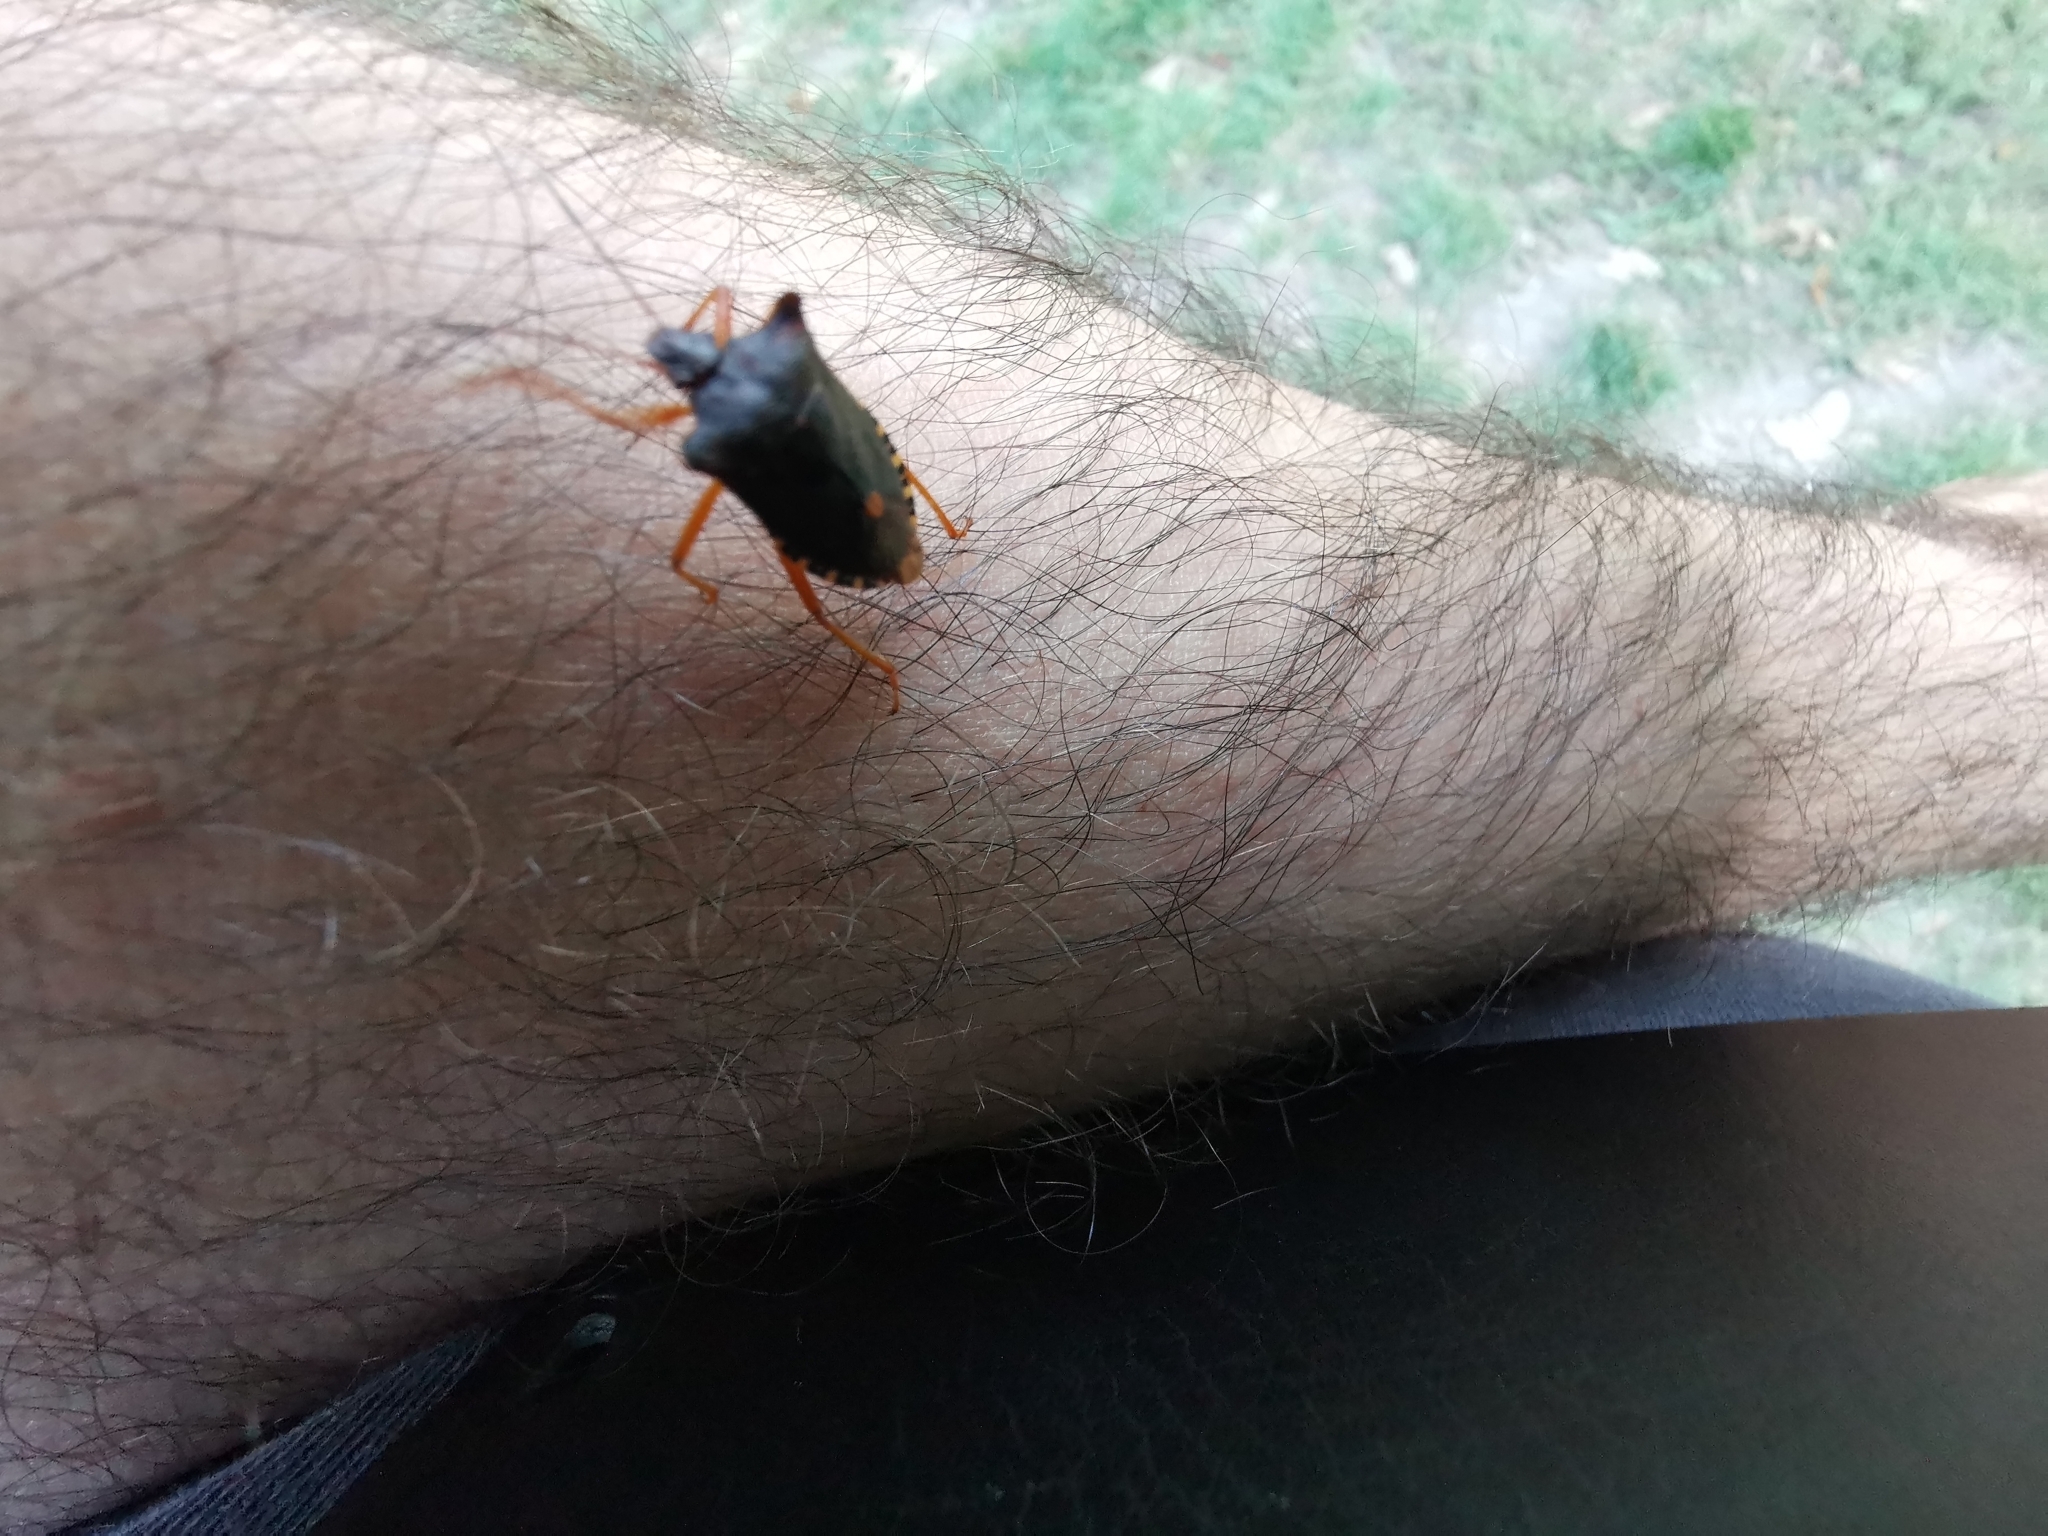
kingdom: Animalia
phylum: Arthropoda
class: Insecta
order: Hemiptera
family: Pentatomidae
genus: Pentatoma
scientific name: Pentatoma rufipes
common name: Forest bug
